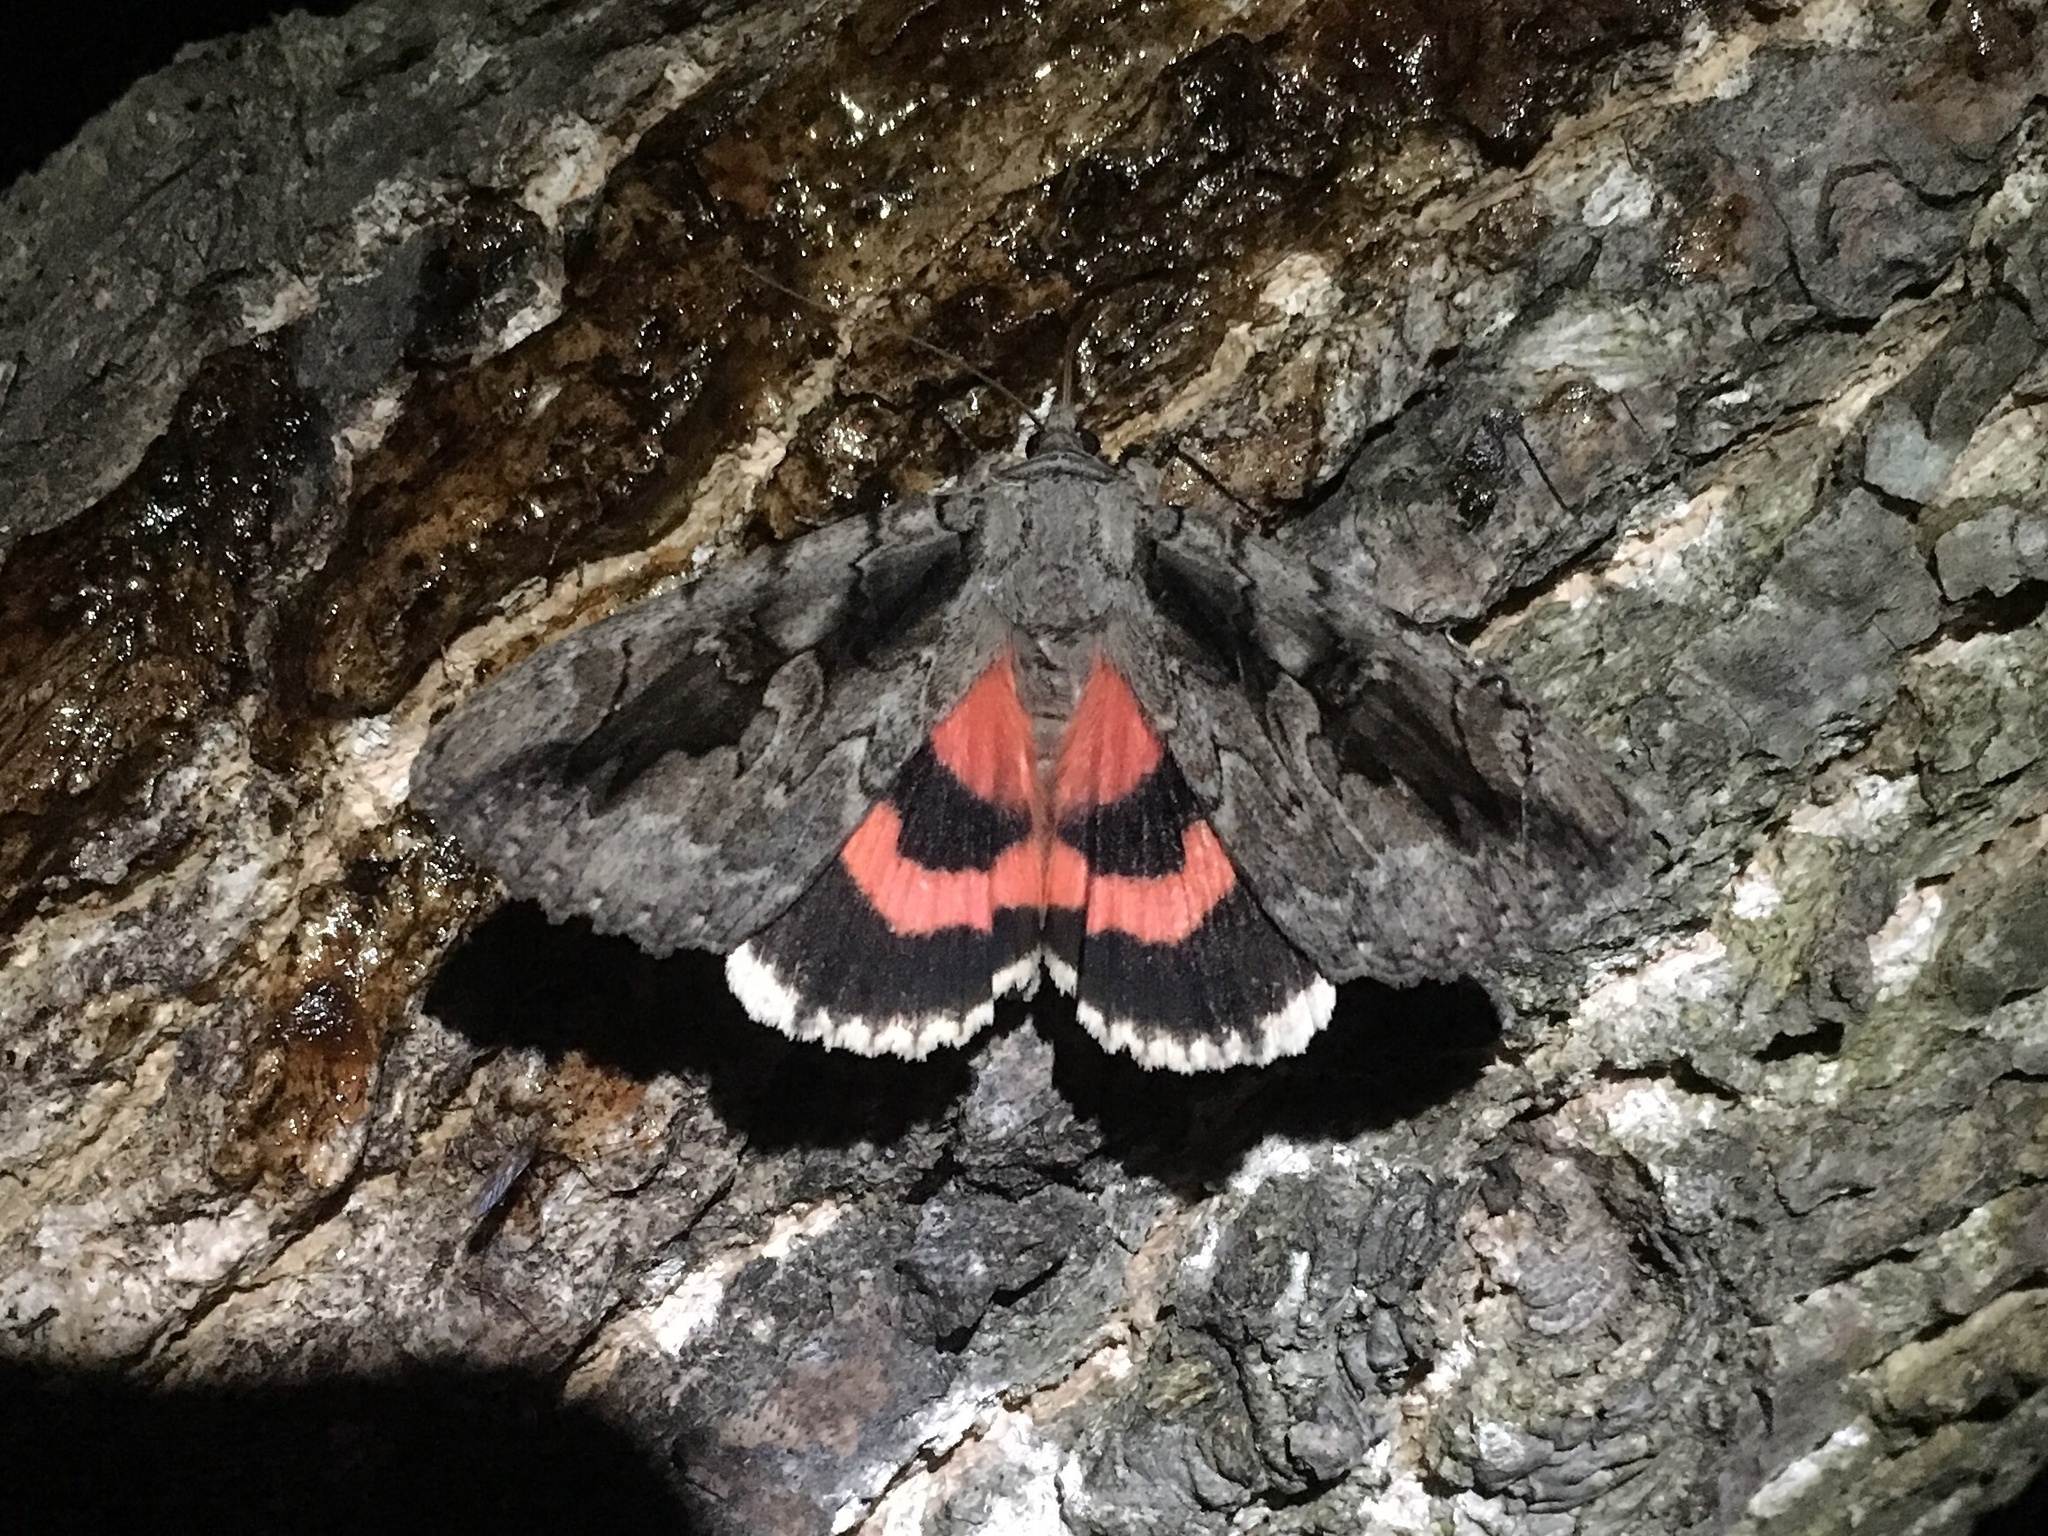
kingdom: Animalia
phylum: Arthropoda
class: Insecta
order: Lepidoptera
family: Erebidae
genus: Catocala
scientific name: Catocala amatrix
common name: Sweetheart underwing
